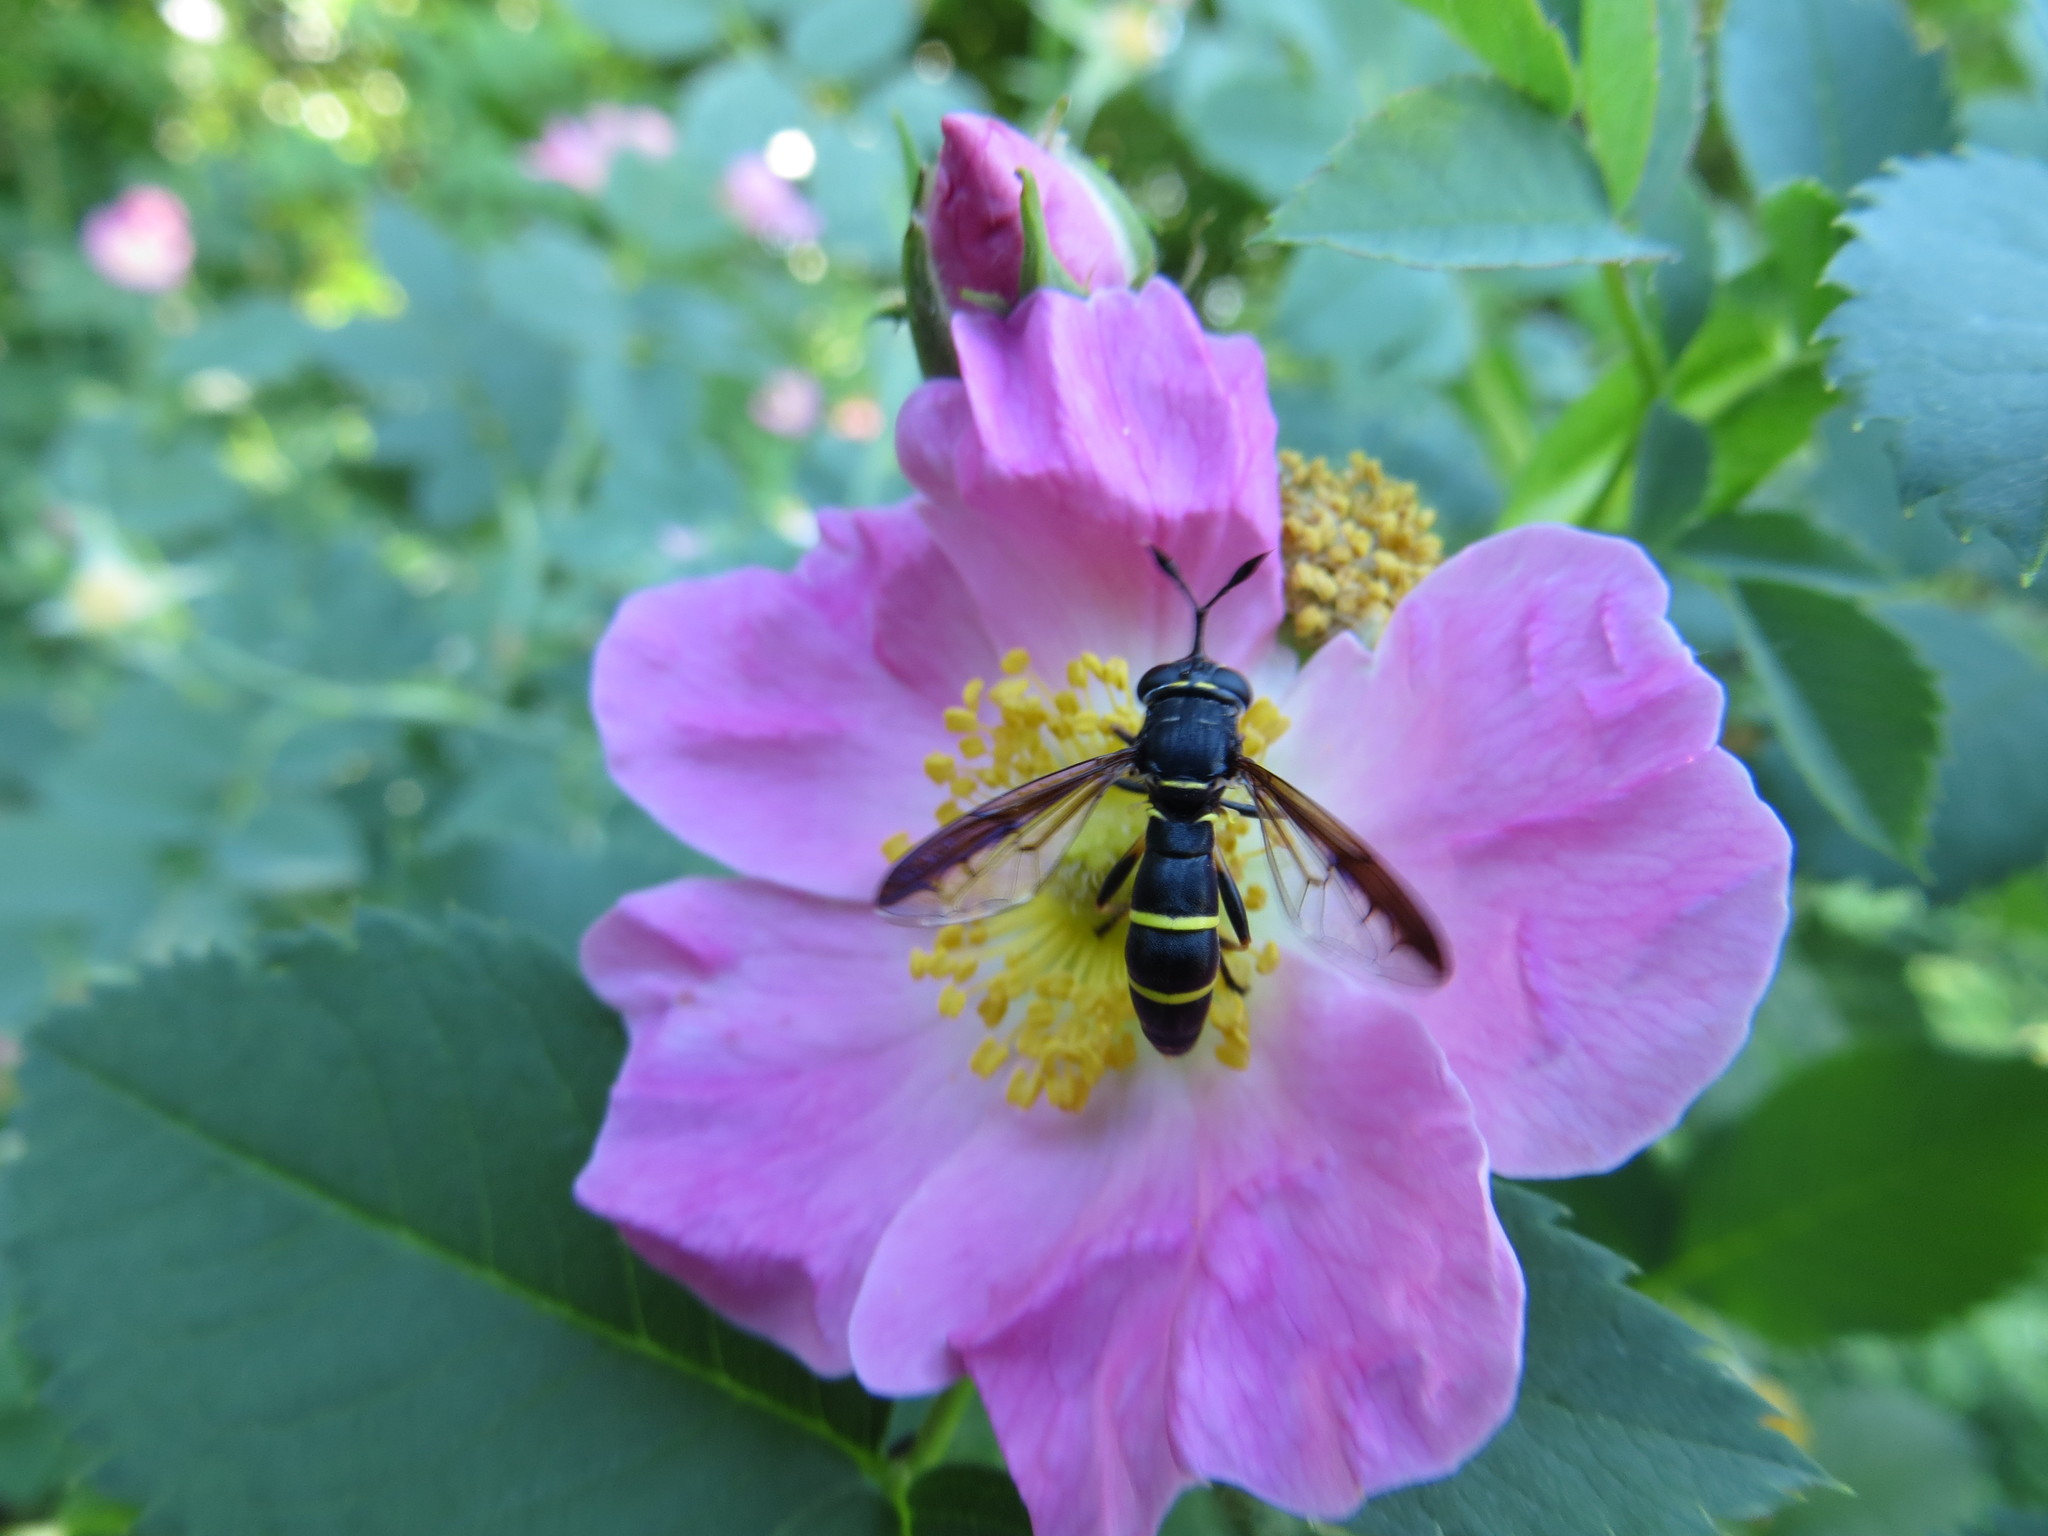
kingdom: Animalia
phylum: Arthropoda
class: Insecta
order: Diptera
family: Syrphidae
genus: Chrysotoxum
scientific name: Chrysotoxum bicincta
